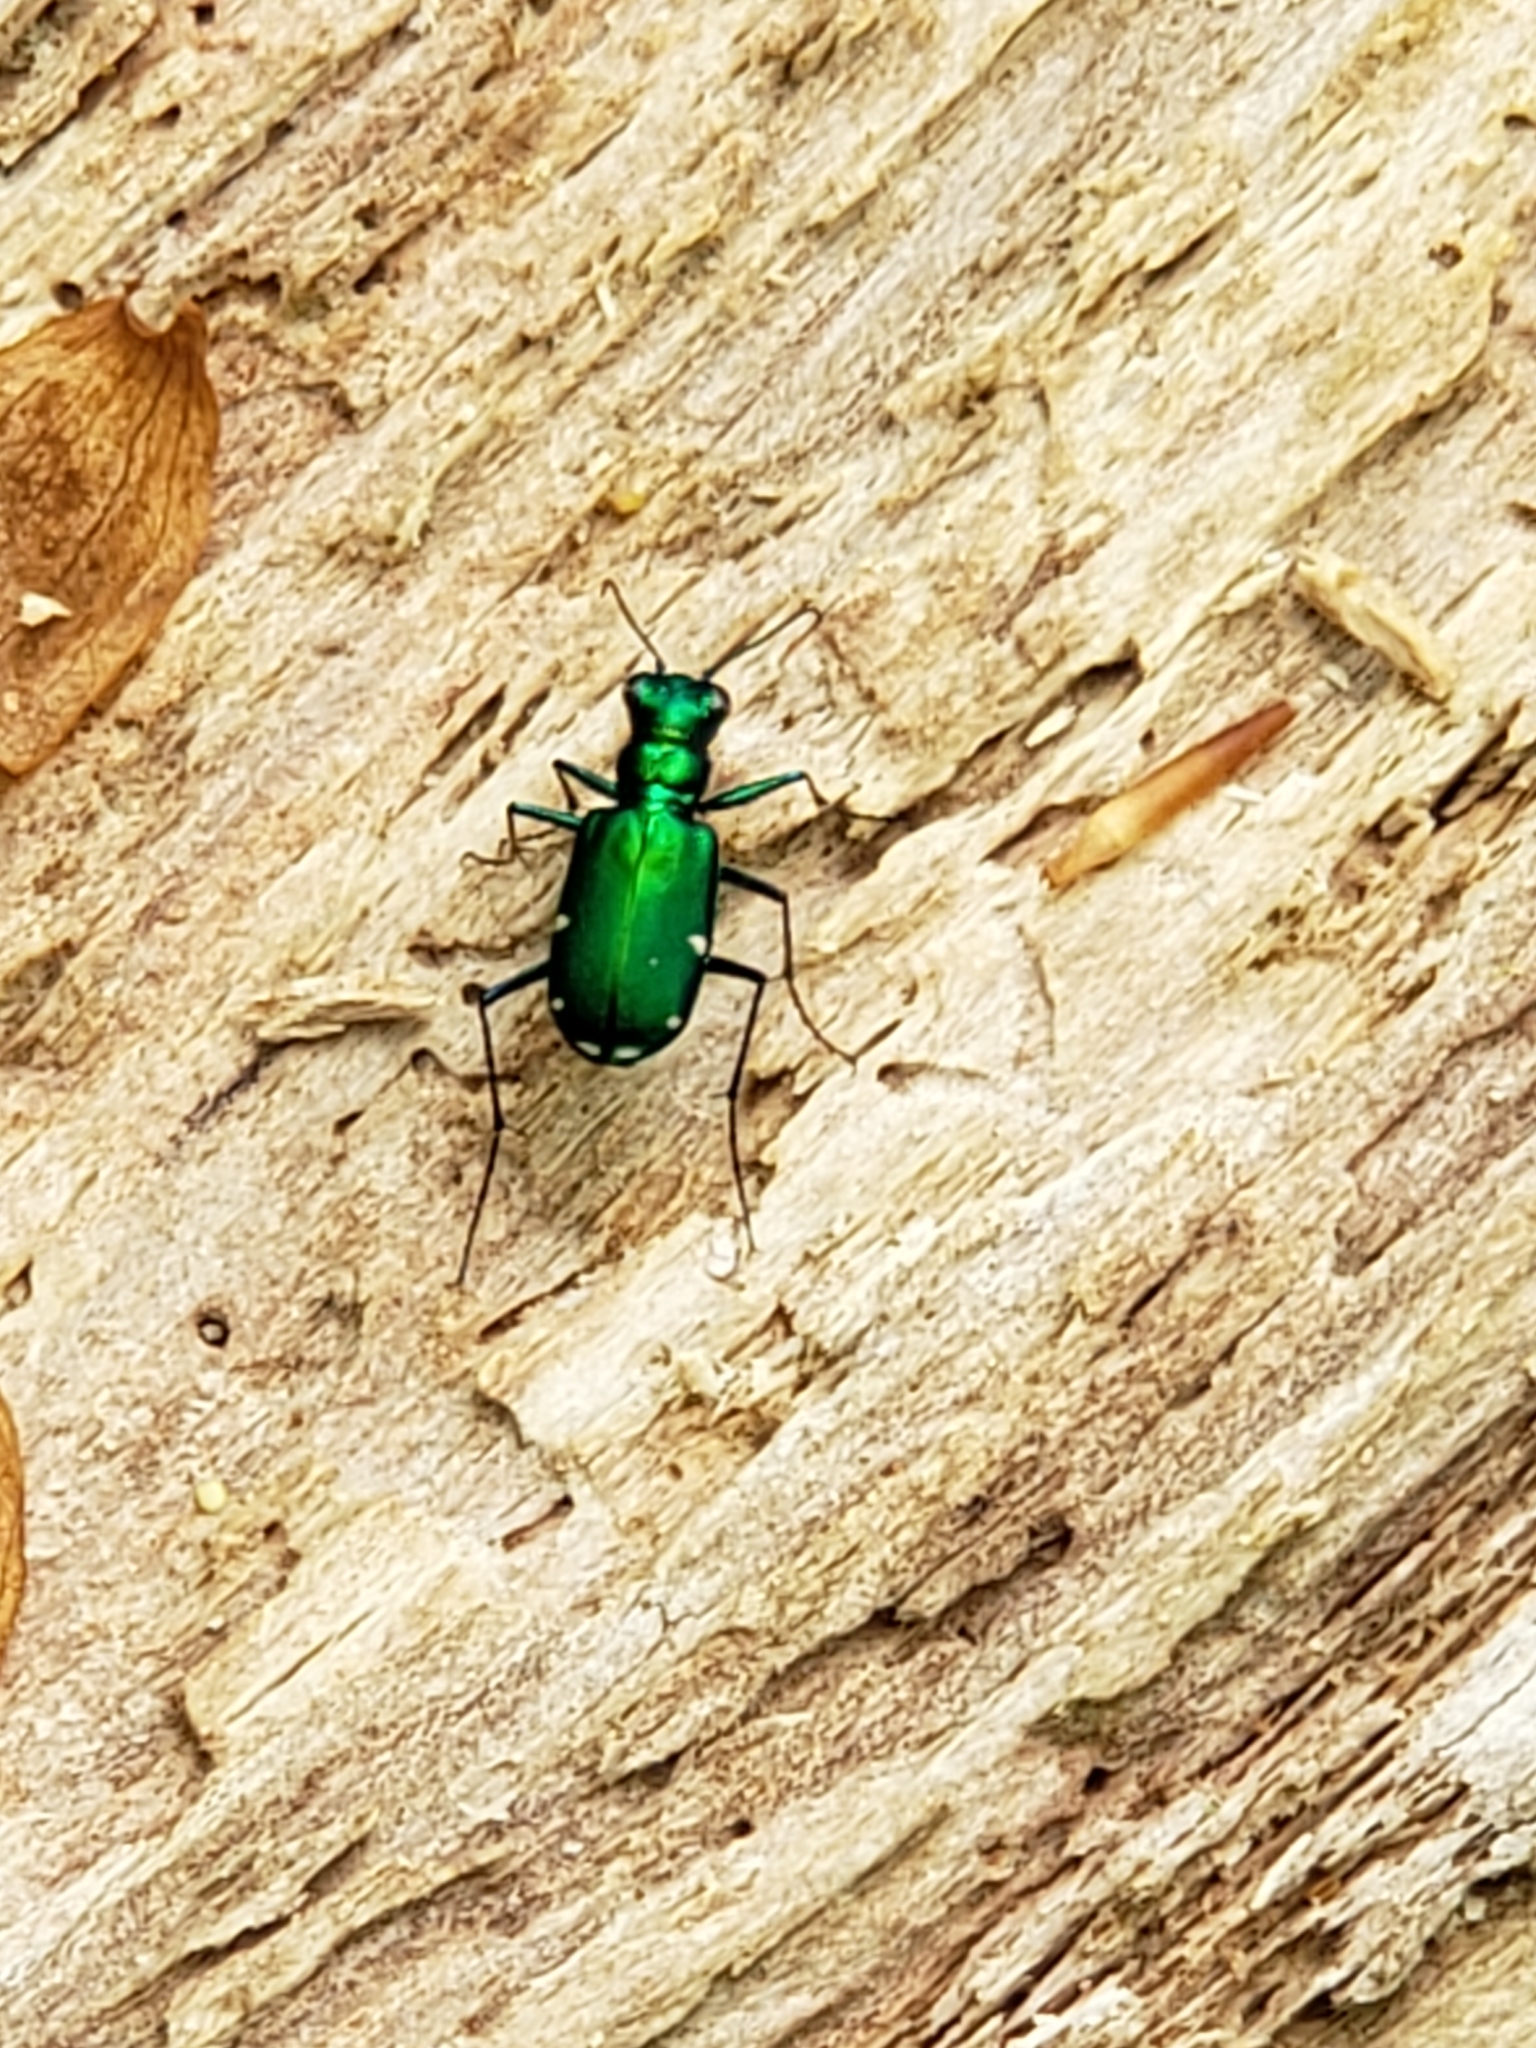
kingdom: Animalia
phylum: Arthropoda
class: Insecta
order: Coleoptera
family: Carabidae
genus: Cicindela
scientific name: Cicindela sexguttata
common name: Six-spotted tiger beetle
